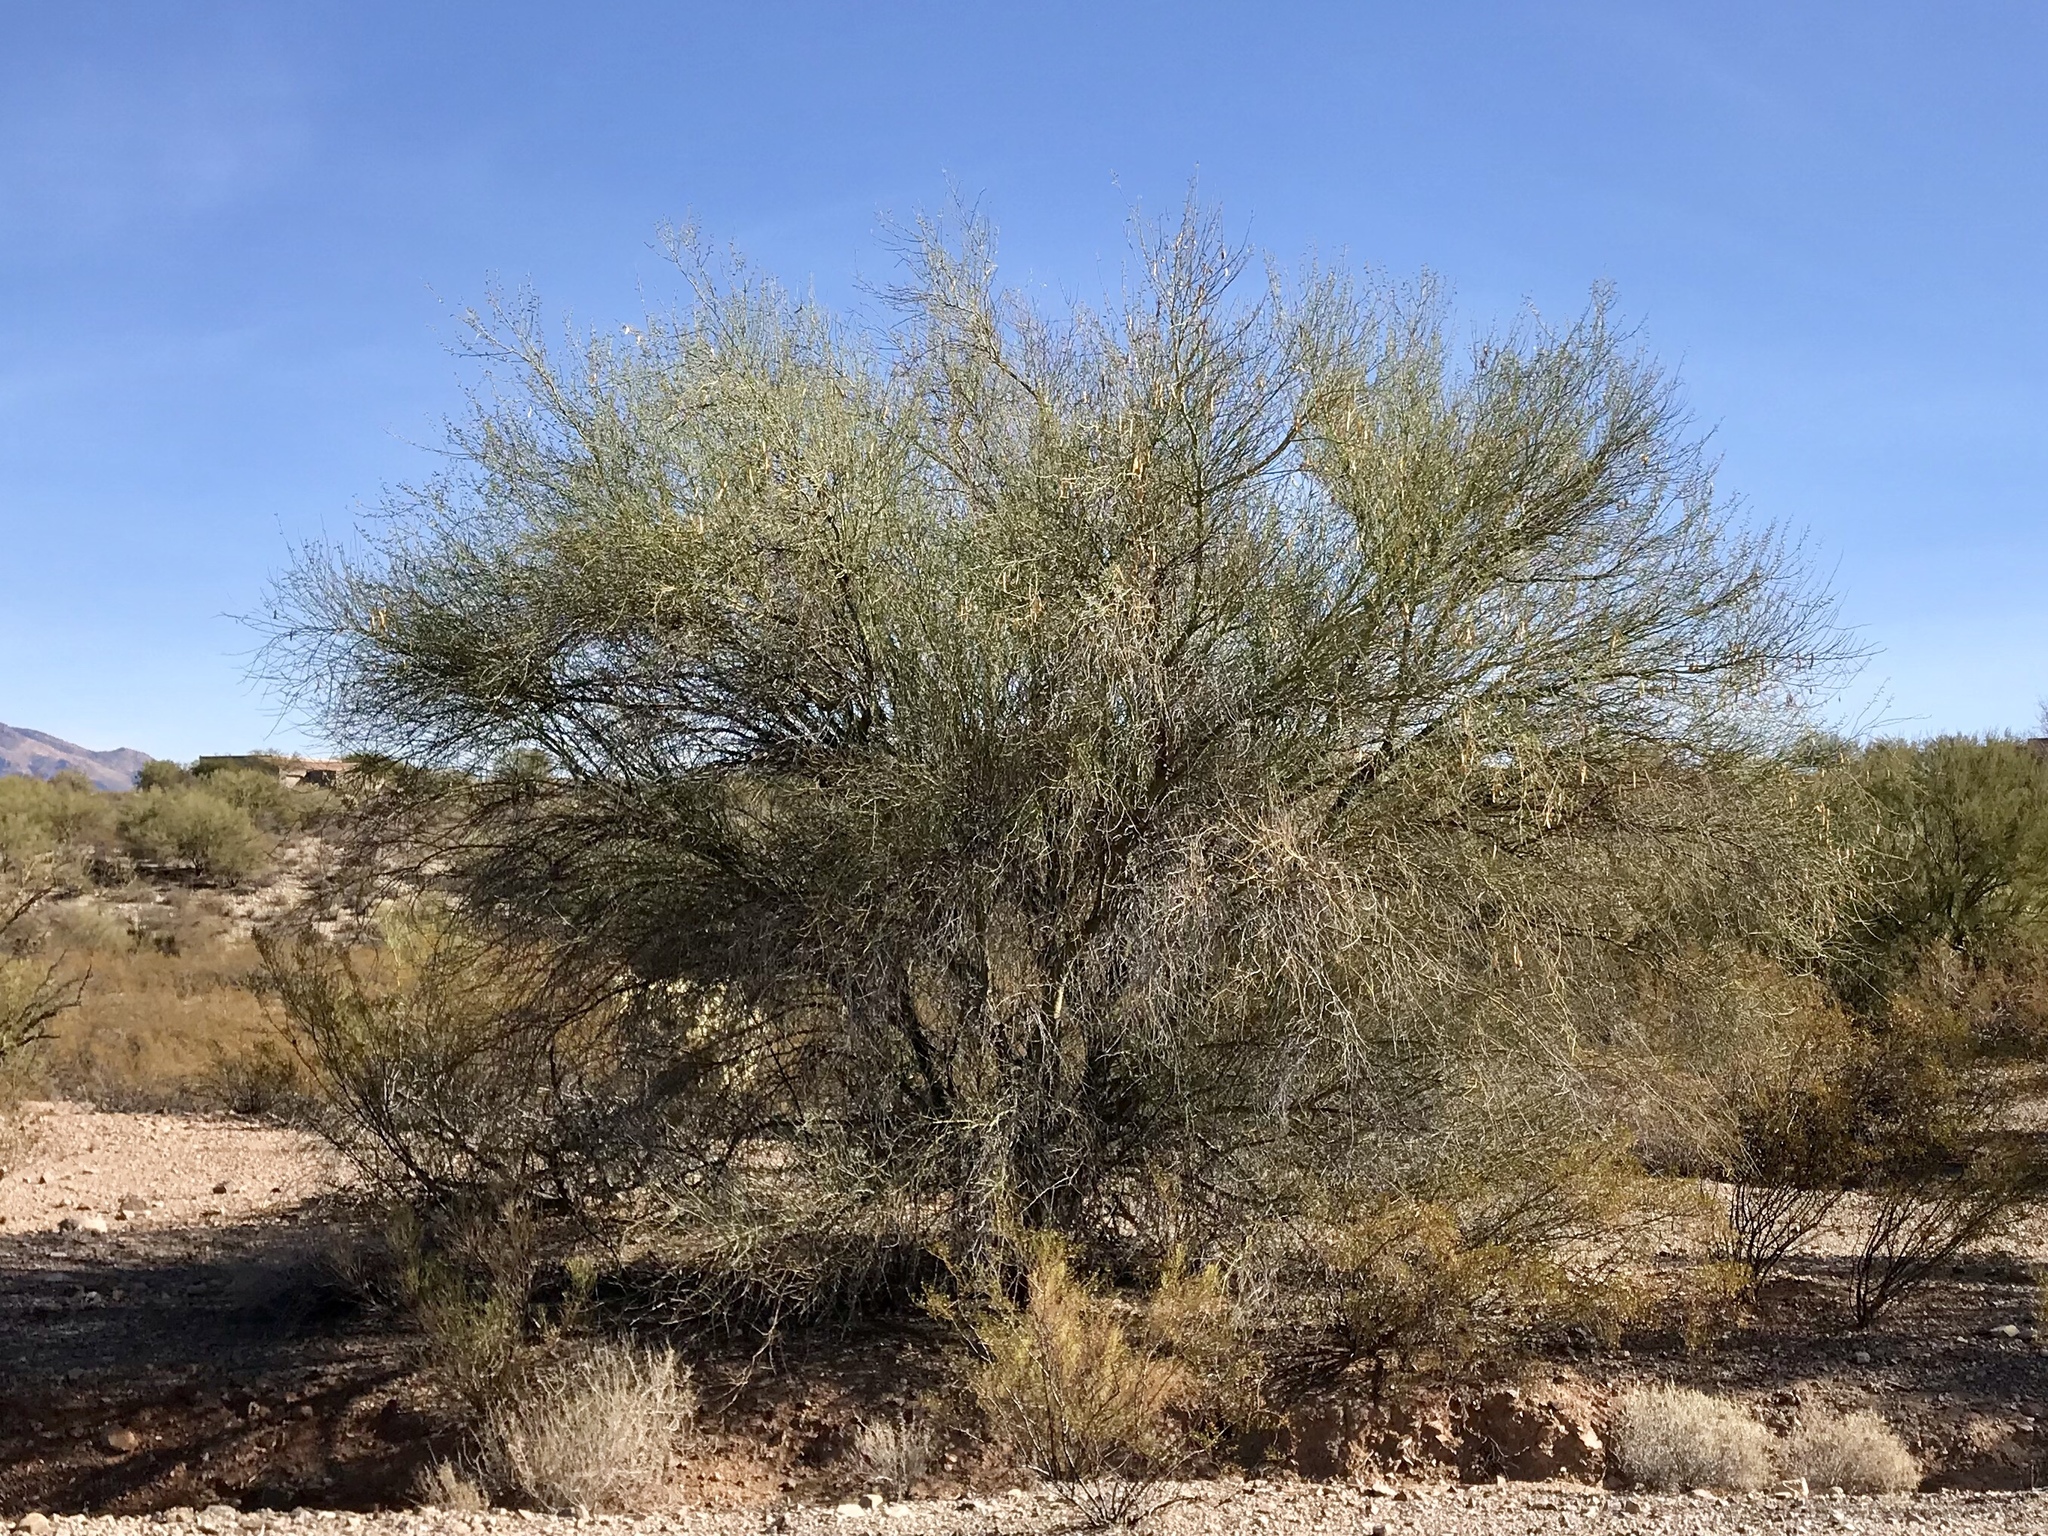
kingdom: Plantae
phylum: Tracheophyta
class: Magnoliopsida
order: Fabales
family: Fabaceae
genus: Parkinsonia
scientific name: Parkinsonia florida
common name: Blue paloverde
